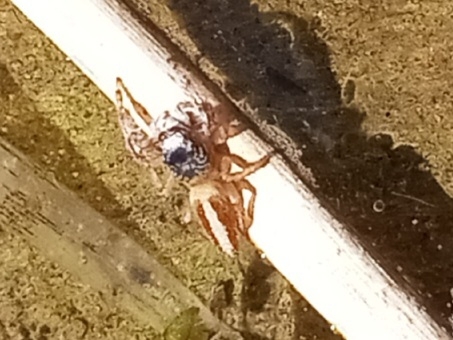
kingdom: Animalia
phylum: Arthropoda
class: Arachnida
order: Araneae
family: Salticidae
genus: Marpissa
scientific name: Marpissa formosa
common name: Short-bellied slender jumping spider
